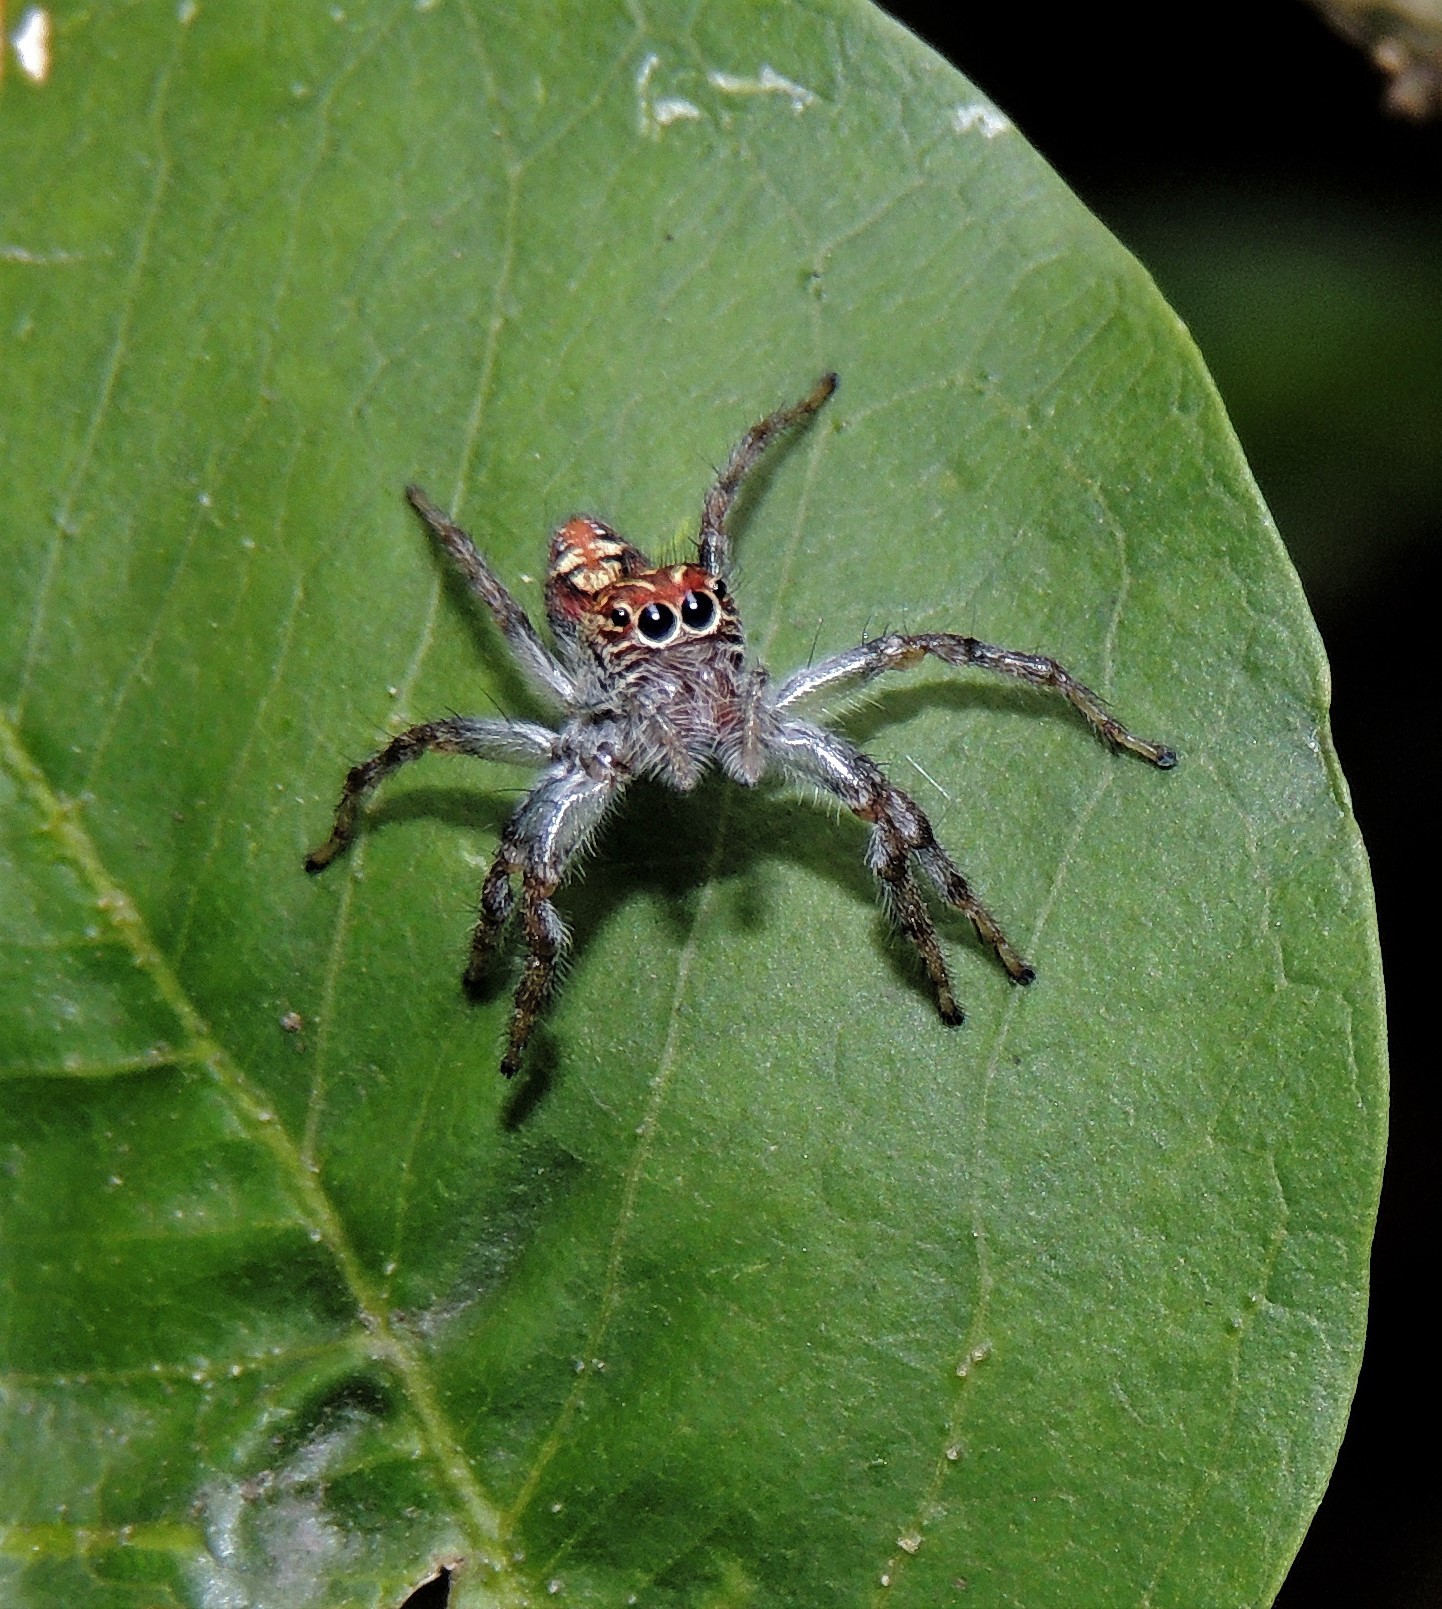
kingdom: Animalia
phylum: Arthropoda
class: Arachnida
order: Araneae
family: Salticidae
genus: Frigga
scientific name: Frigga quintensis
